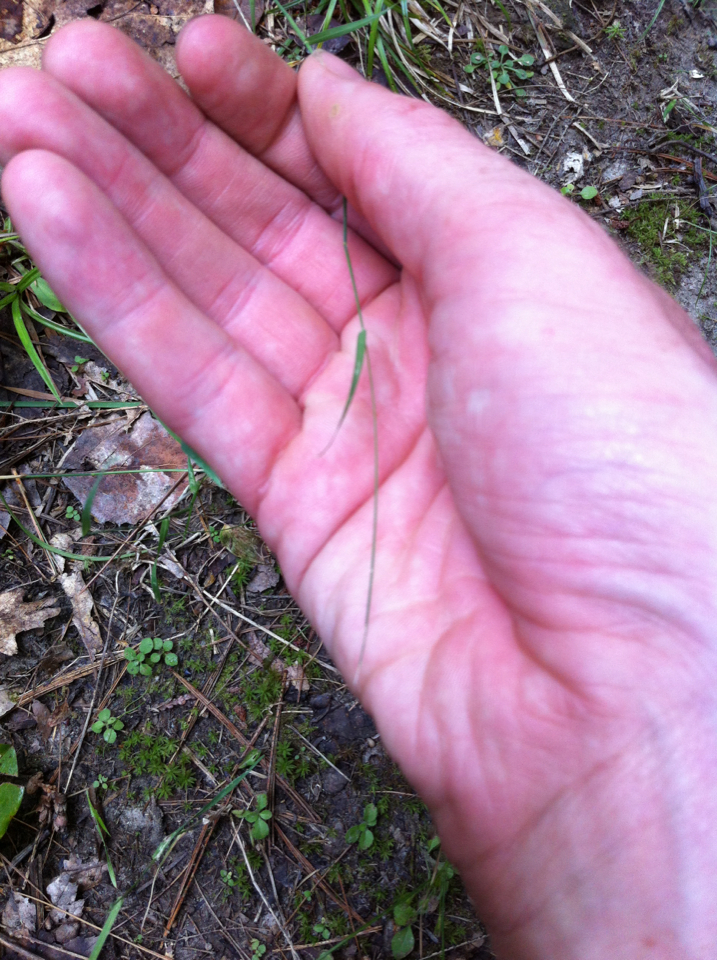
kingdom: Plantae
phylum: Tracheophyta
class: Liliopsida
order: Poales
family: Poaceae
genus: Poa
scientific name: Poa compressa
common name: Canada bluegrass
